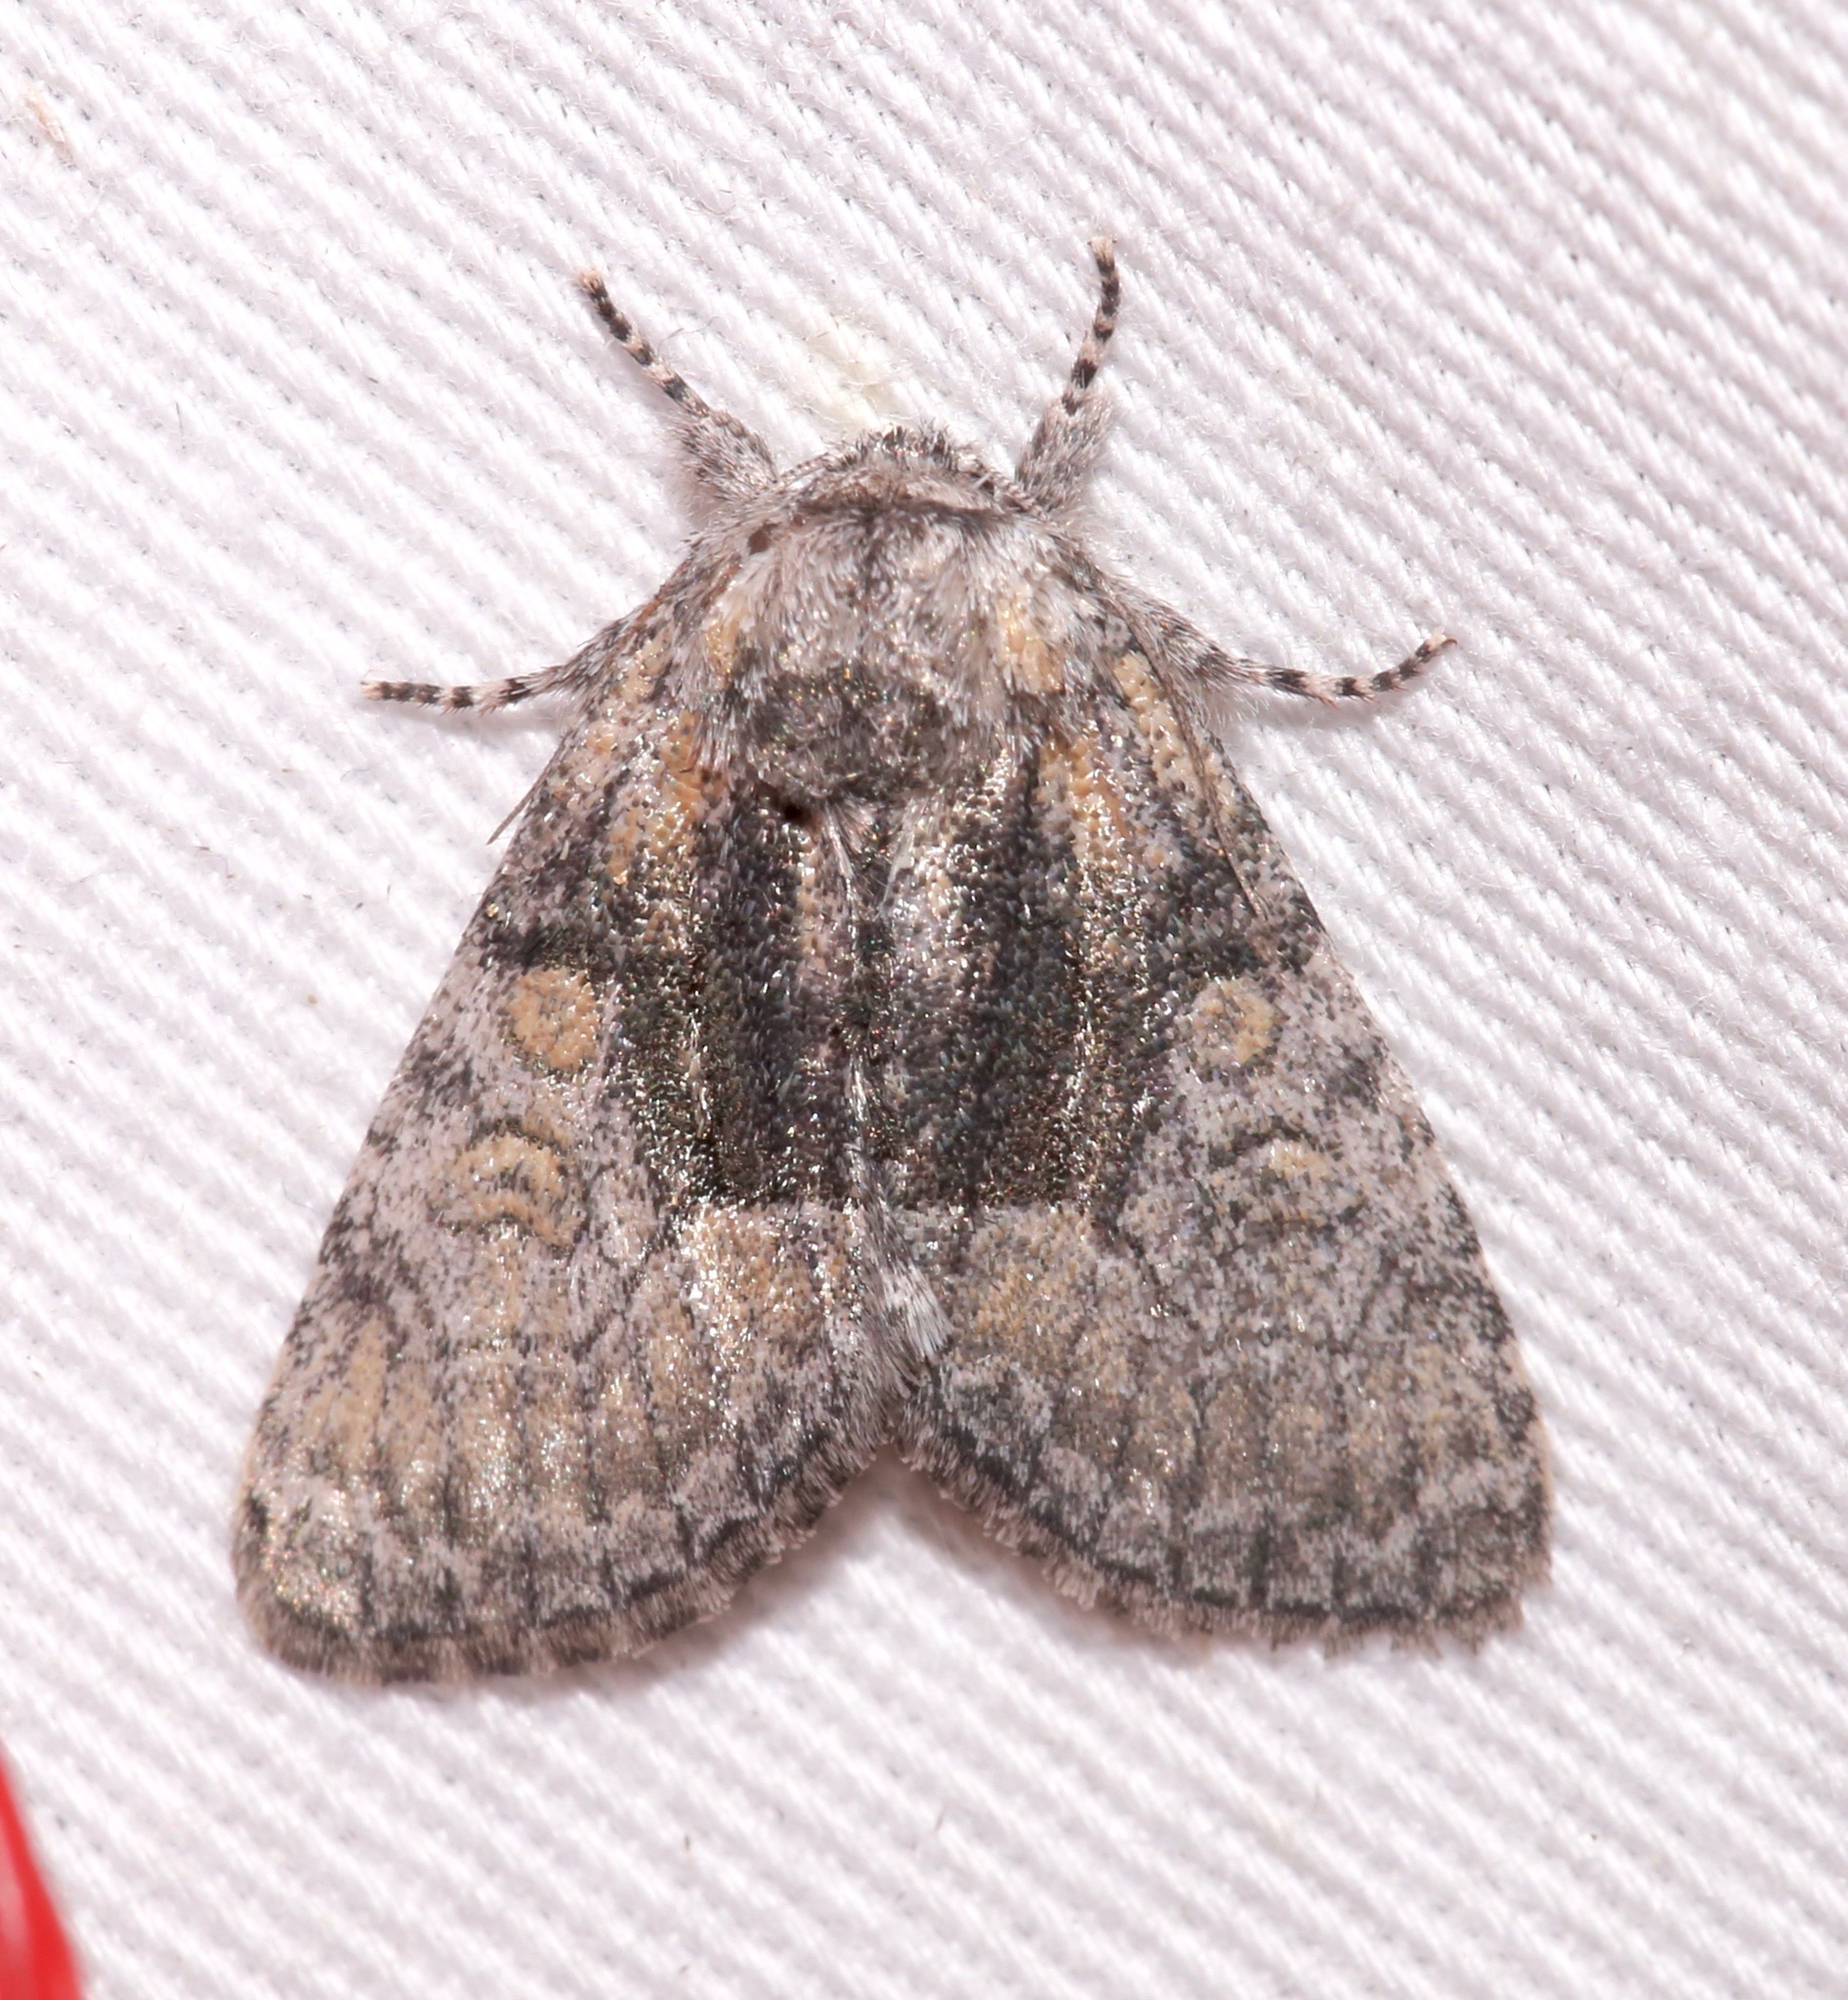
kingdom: Animalia
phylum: Arthropoda
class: Insecta
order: Lepidoptera
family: Noctuidae
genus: Raphia
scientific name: Raphia frater
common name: Brother
